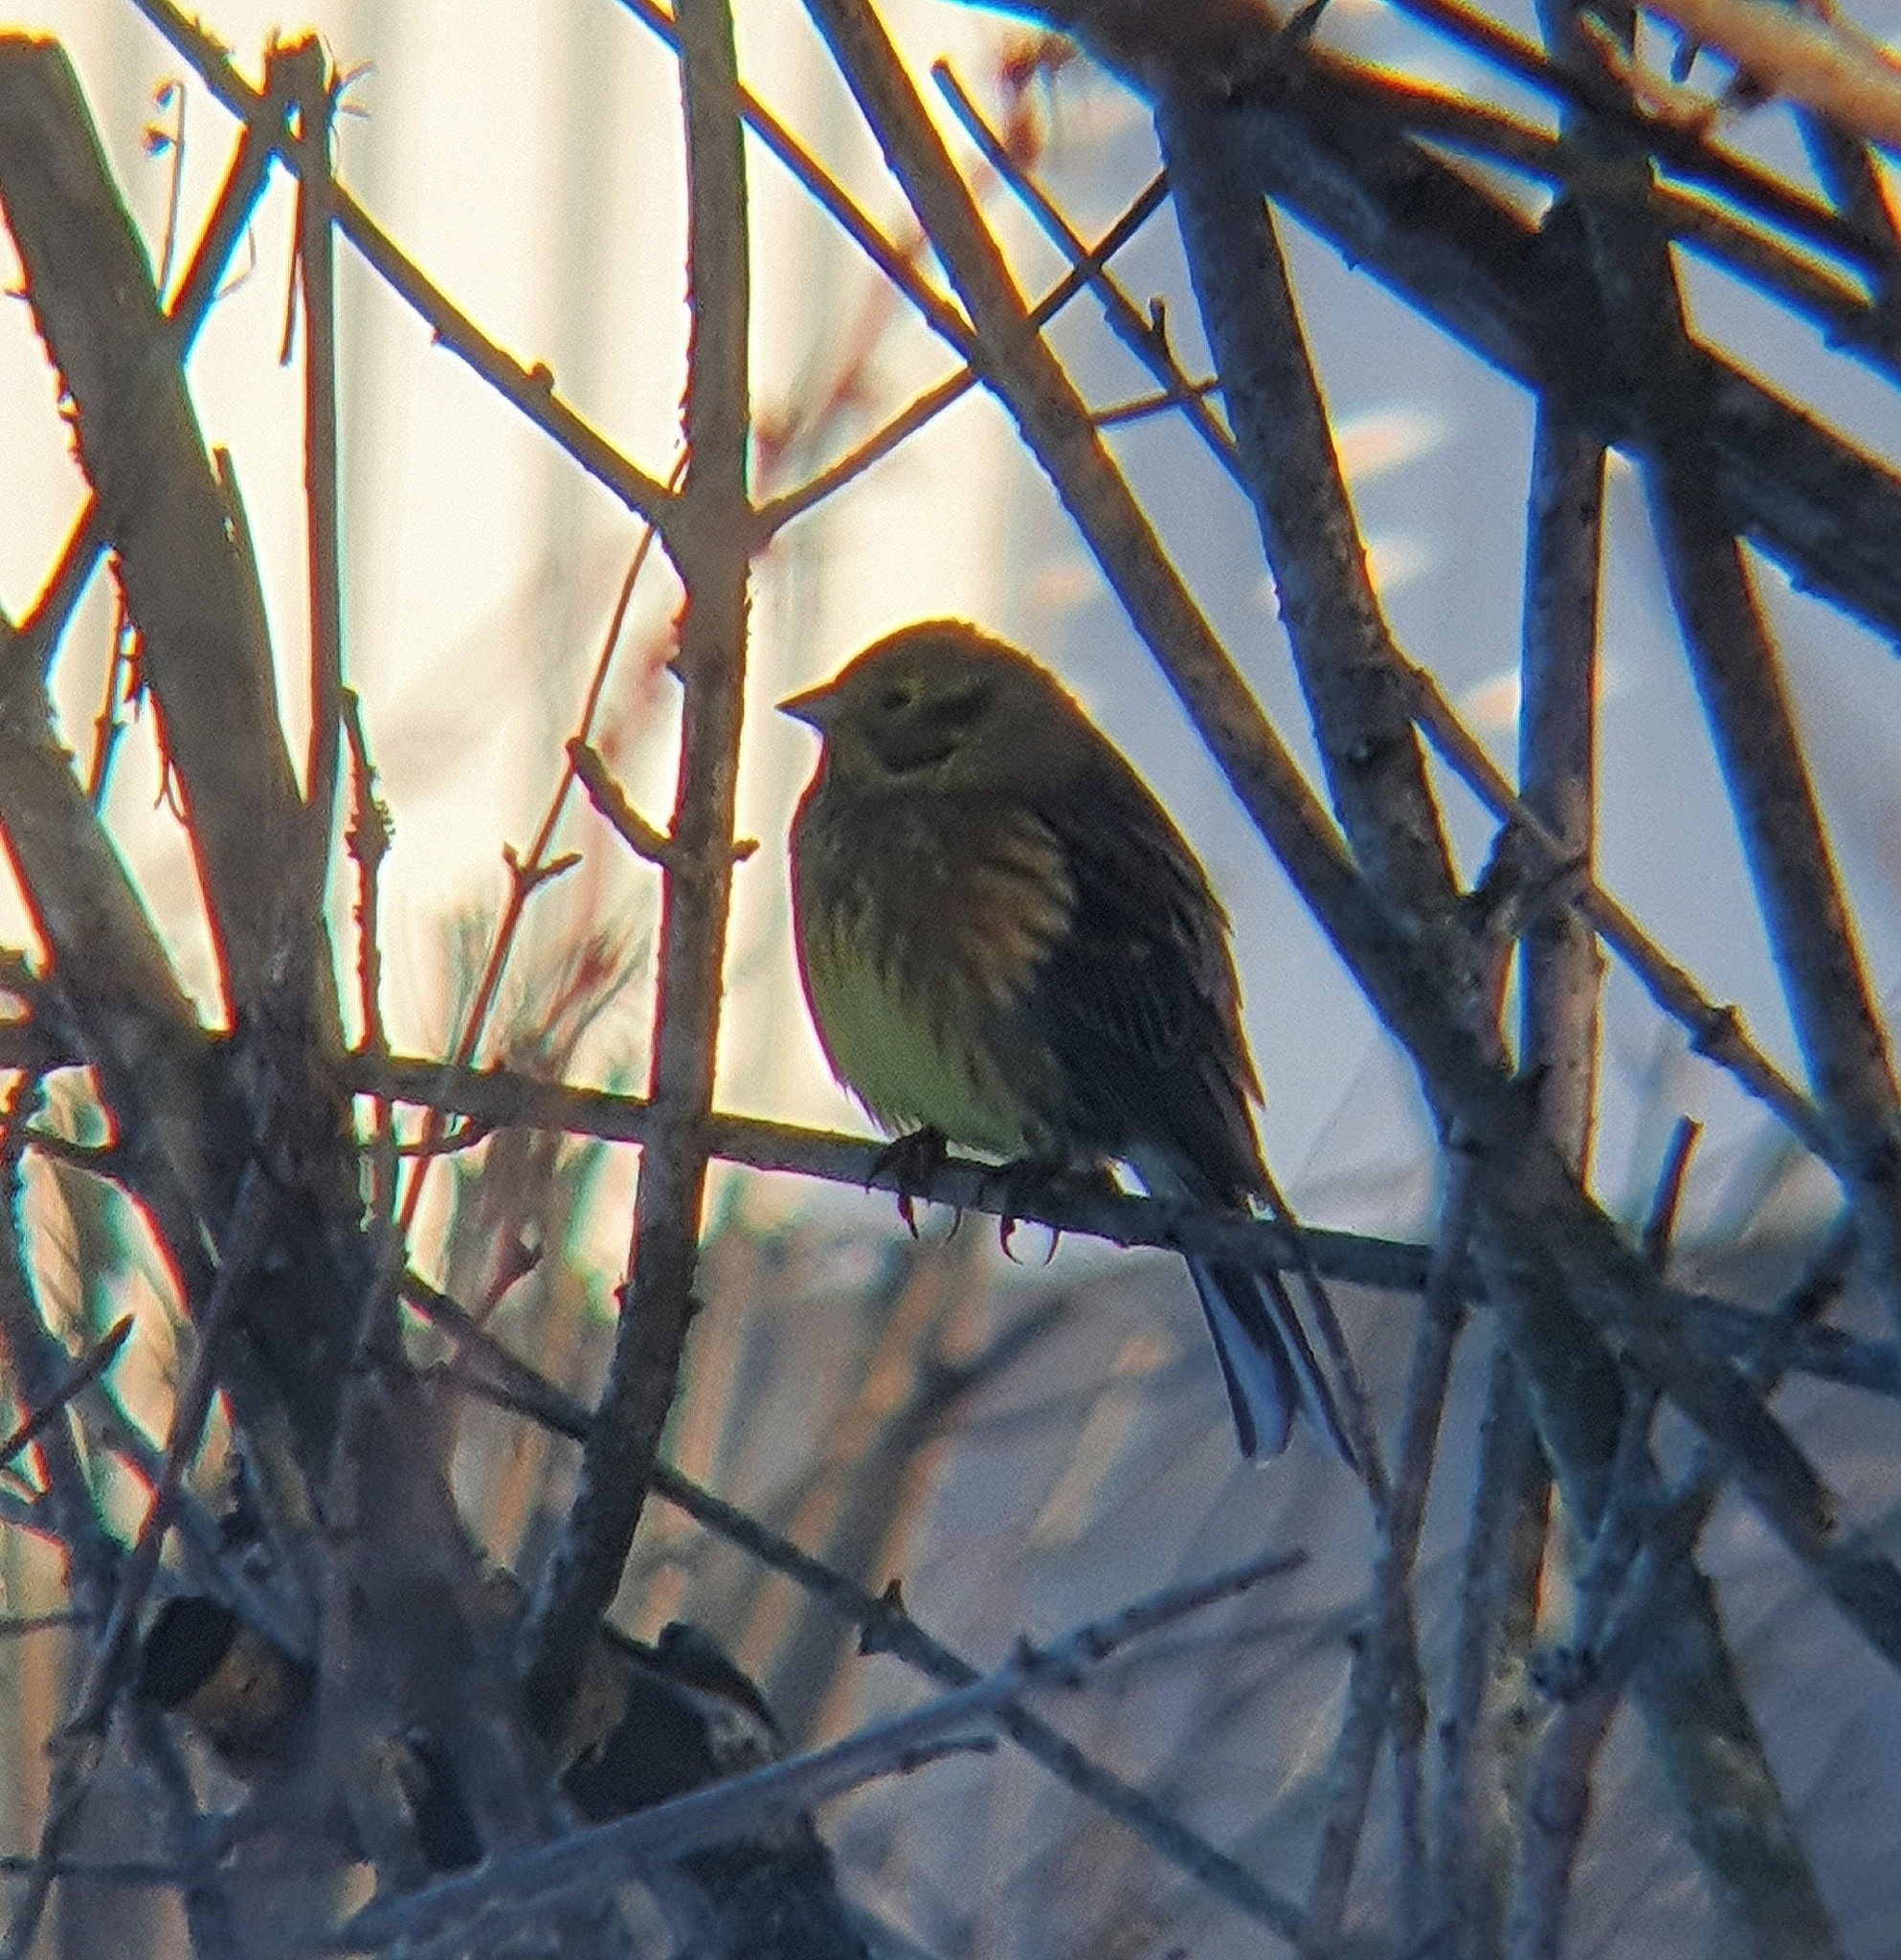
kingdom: Animalia
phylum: Chordata
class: Aves
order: Passeriformes
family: Emberizidae
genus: Emberiza
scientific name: Emberiza citrinella
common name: Yellowhammer
